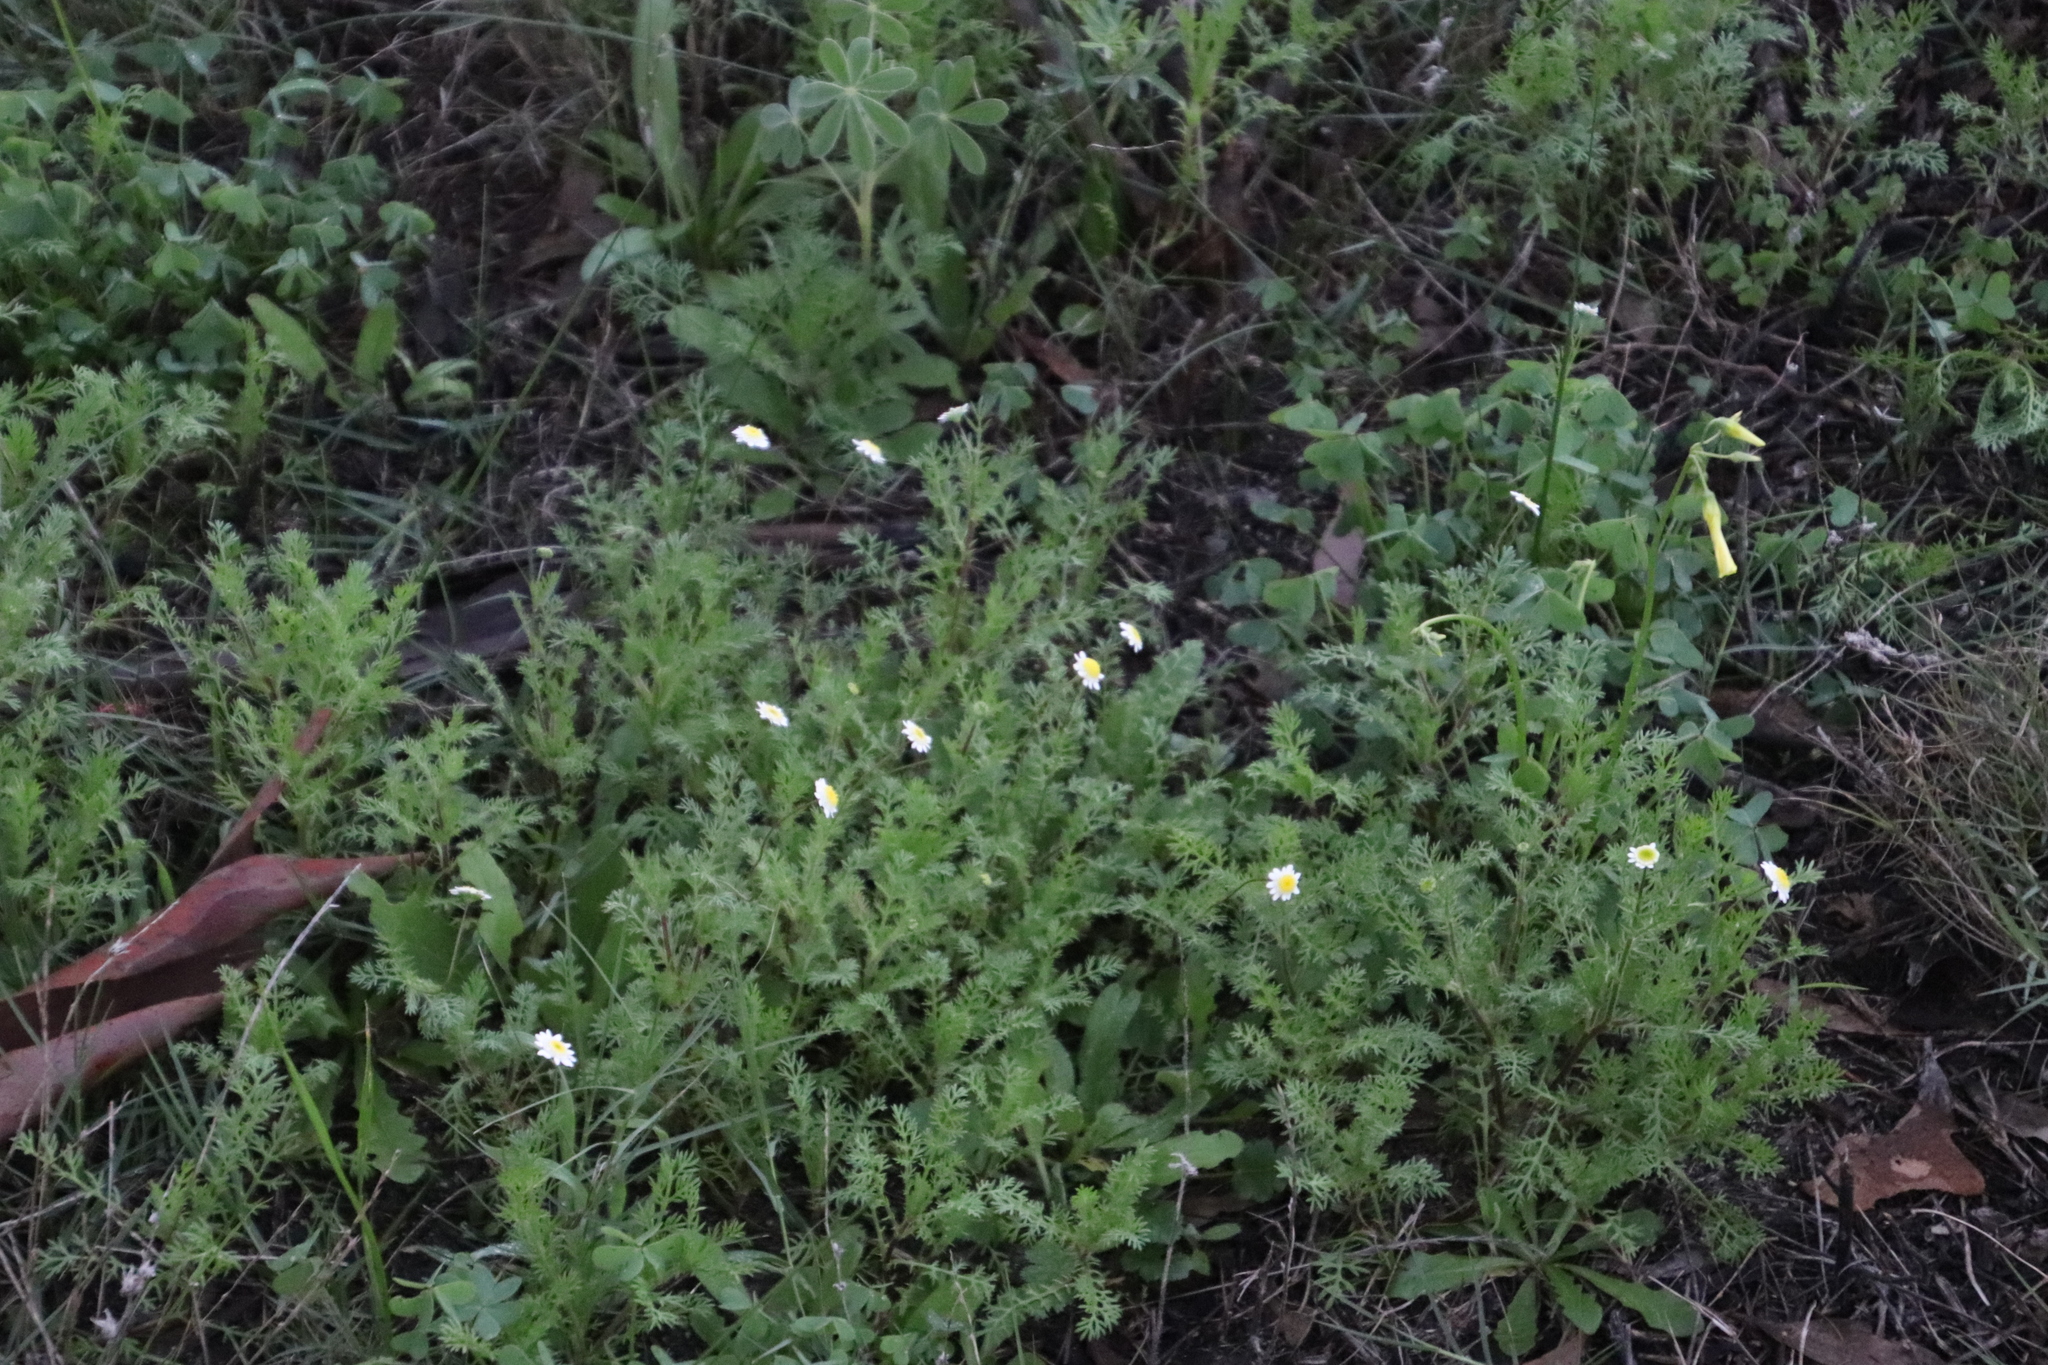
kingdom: Plantae
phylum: Tracheophyta
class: Magnoliopsida
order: Asterales
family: Asteraceae
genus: Cotula
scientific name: Cotula turbinata
